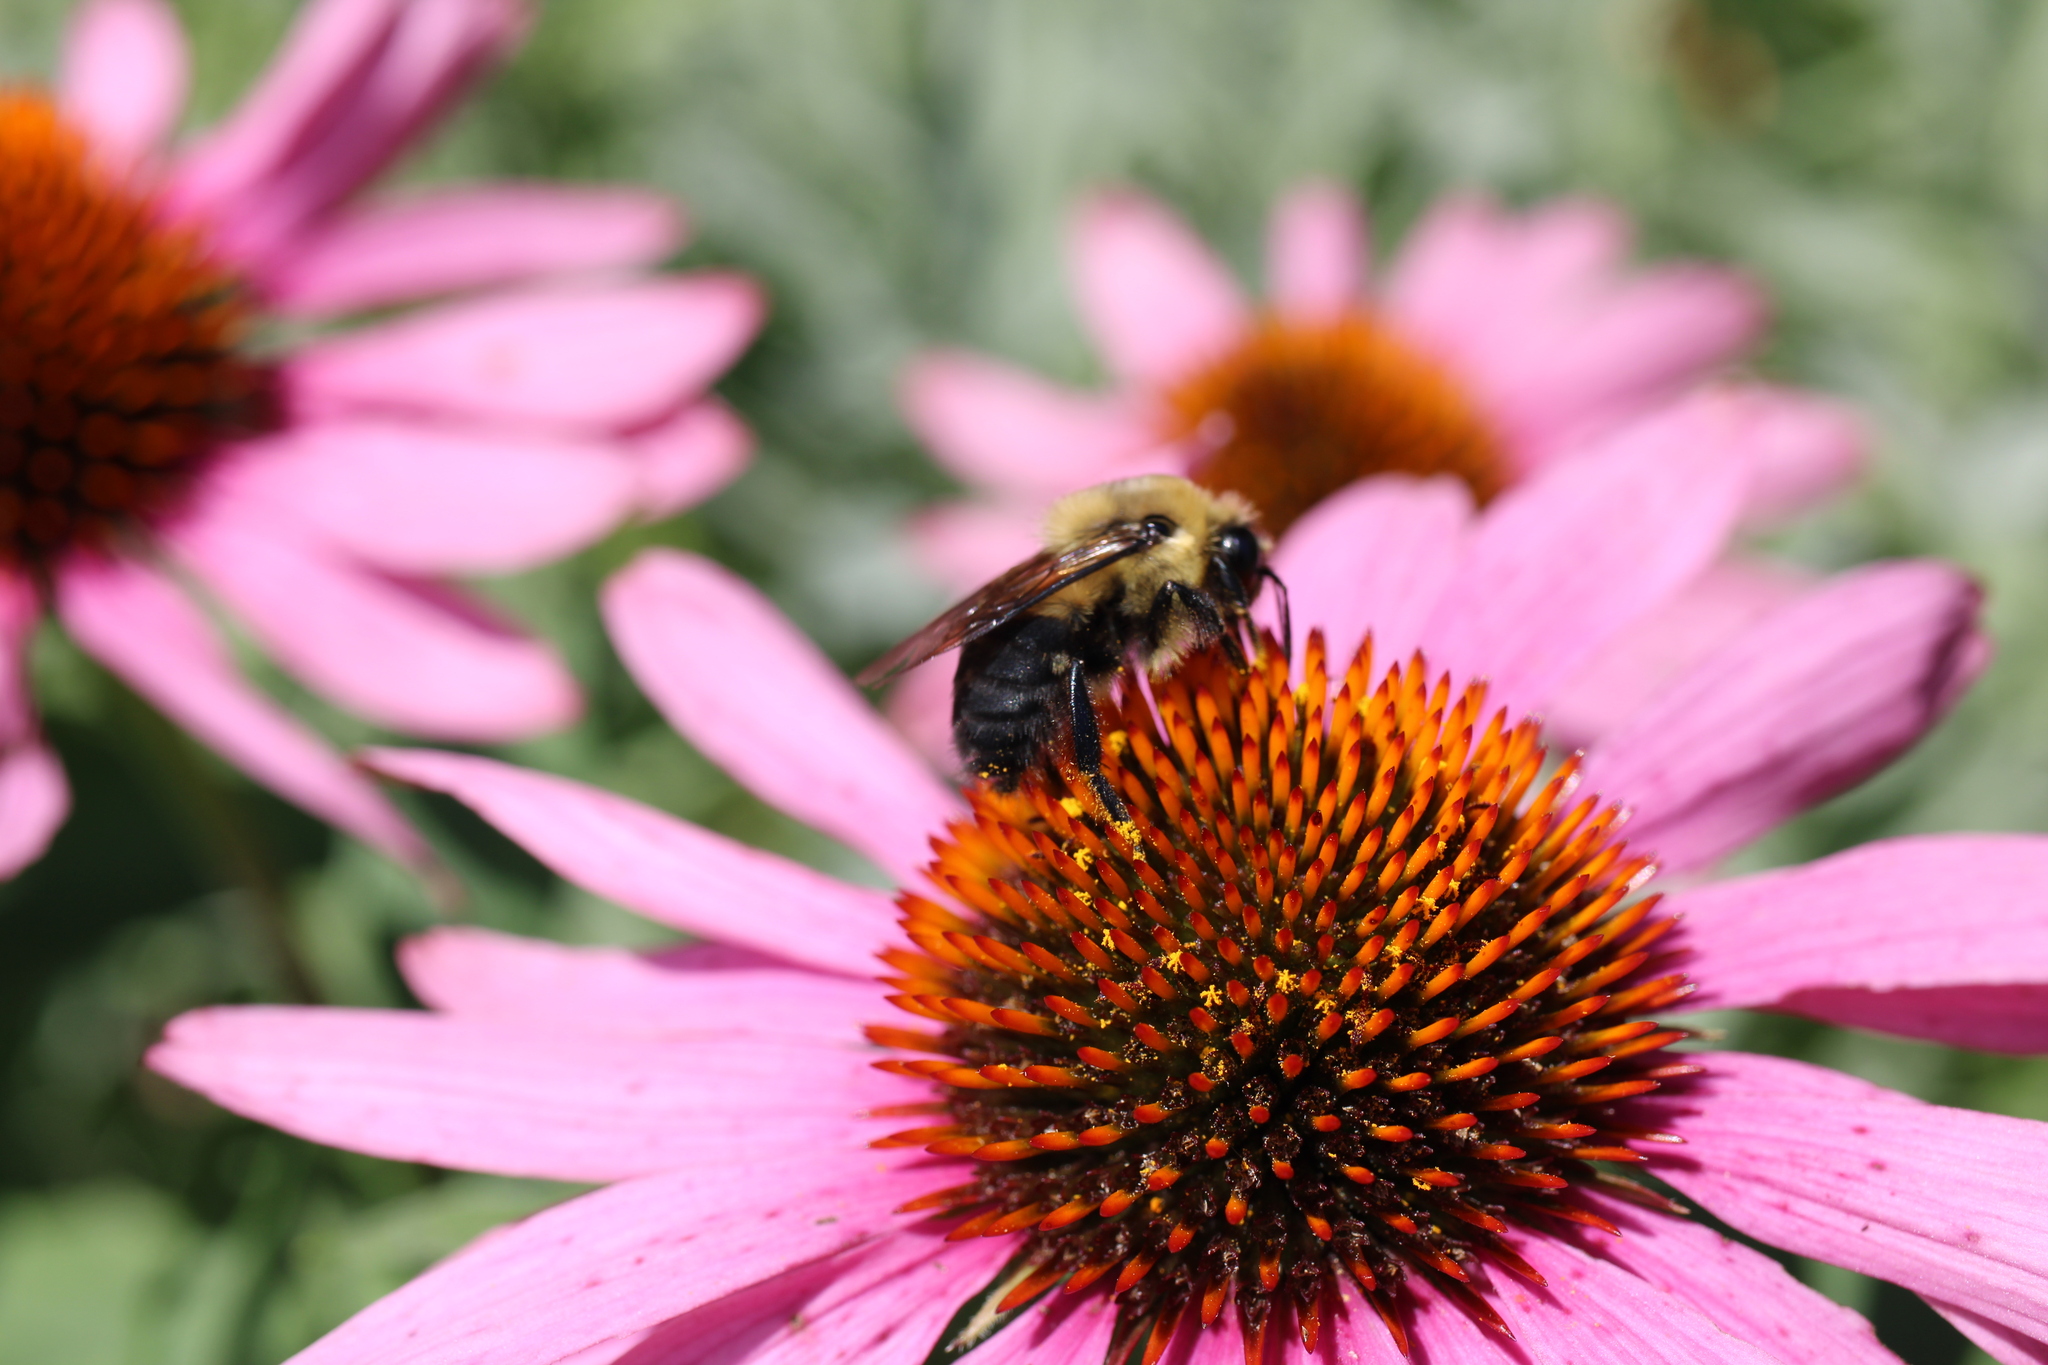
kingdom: Animalia
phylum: Arthropoda
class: Insecta
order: Hymenoptera
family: Apidae
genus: Bombus
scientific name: Bombus griseocollis
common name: Brown-belted bumble bee
